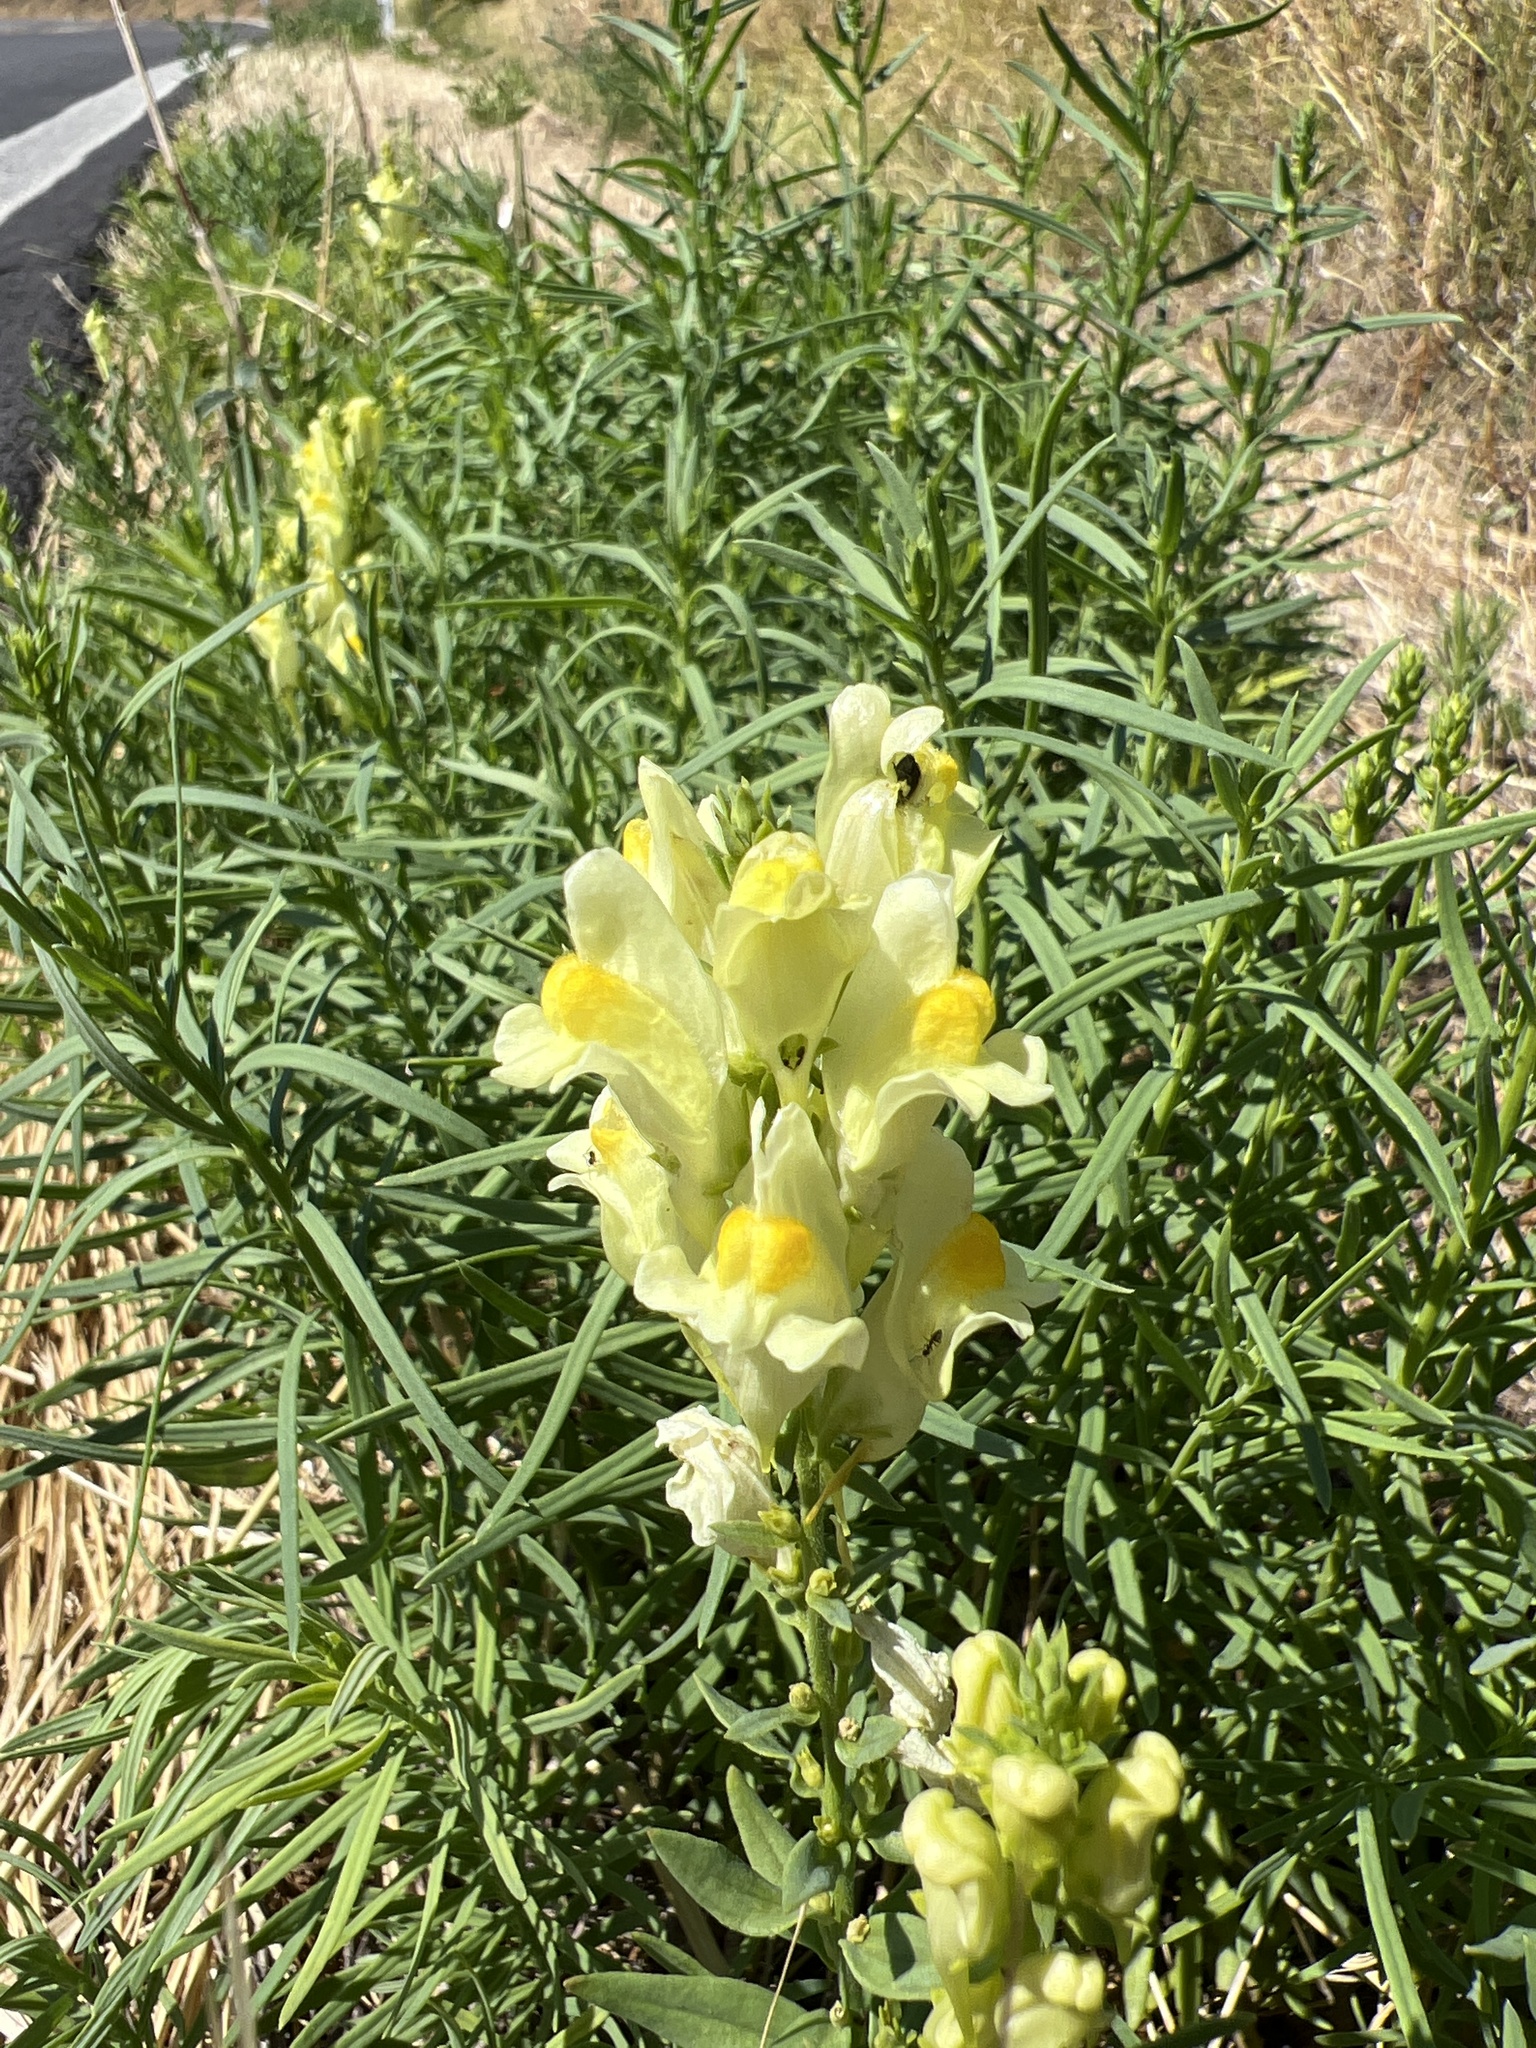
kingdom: Plantae
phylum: Tracheophyta
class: Magnoliopsida
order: Lamiales
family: Plantaginaceae
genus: Linaria
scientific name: Linaria vulgaris
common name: Butter and eggs
